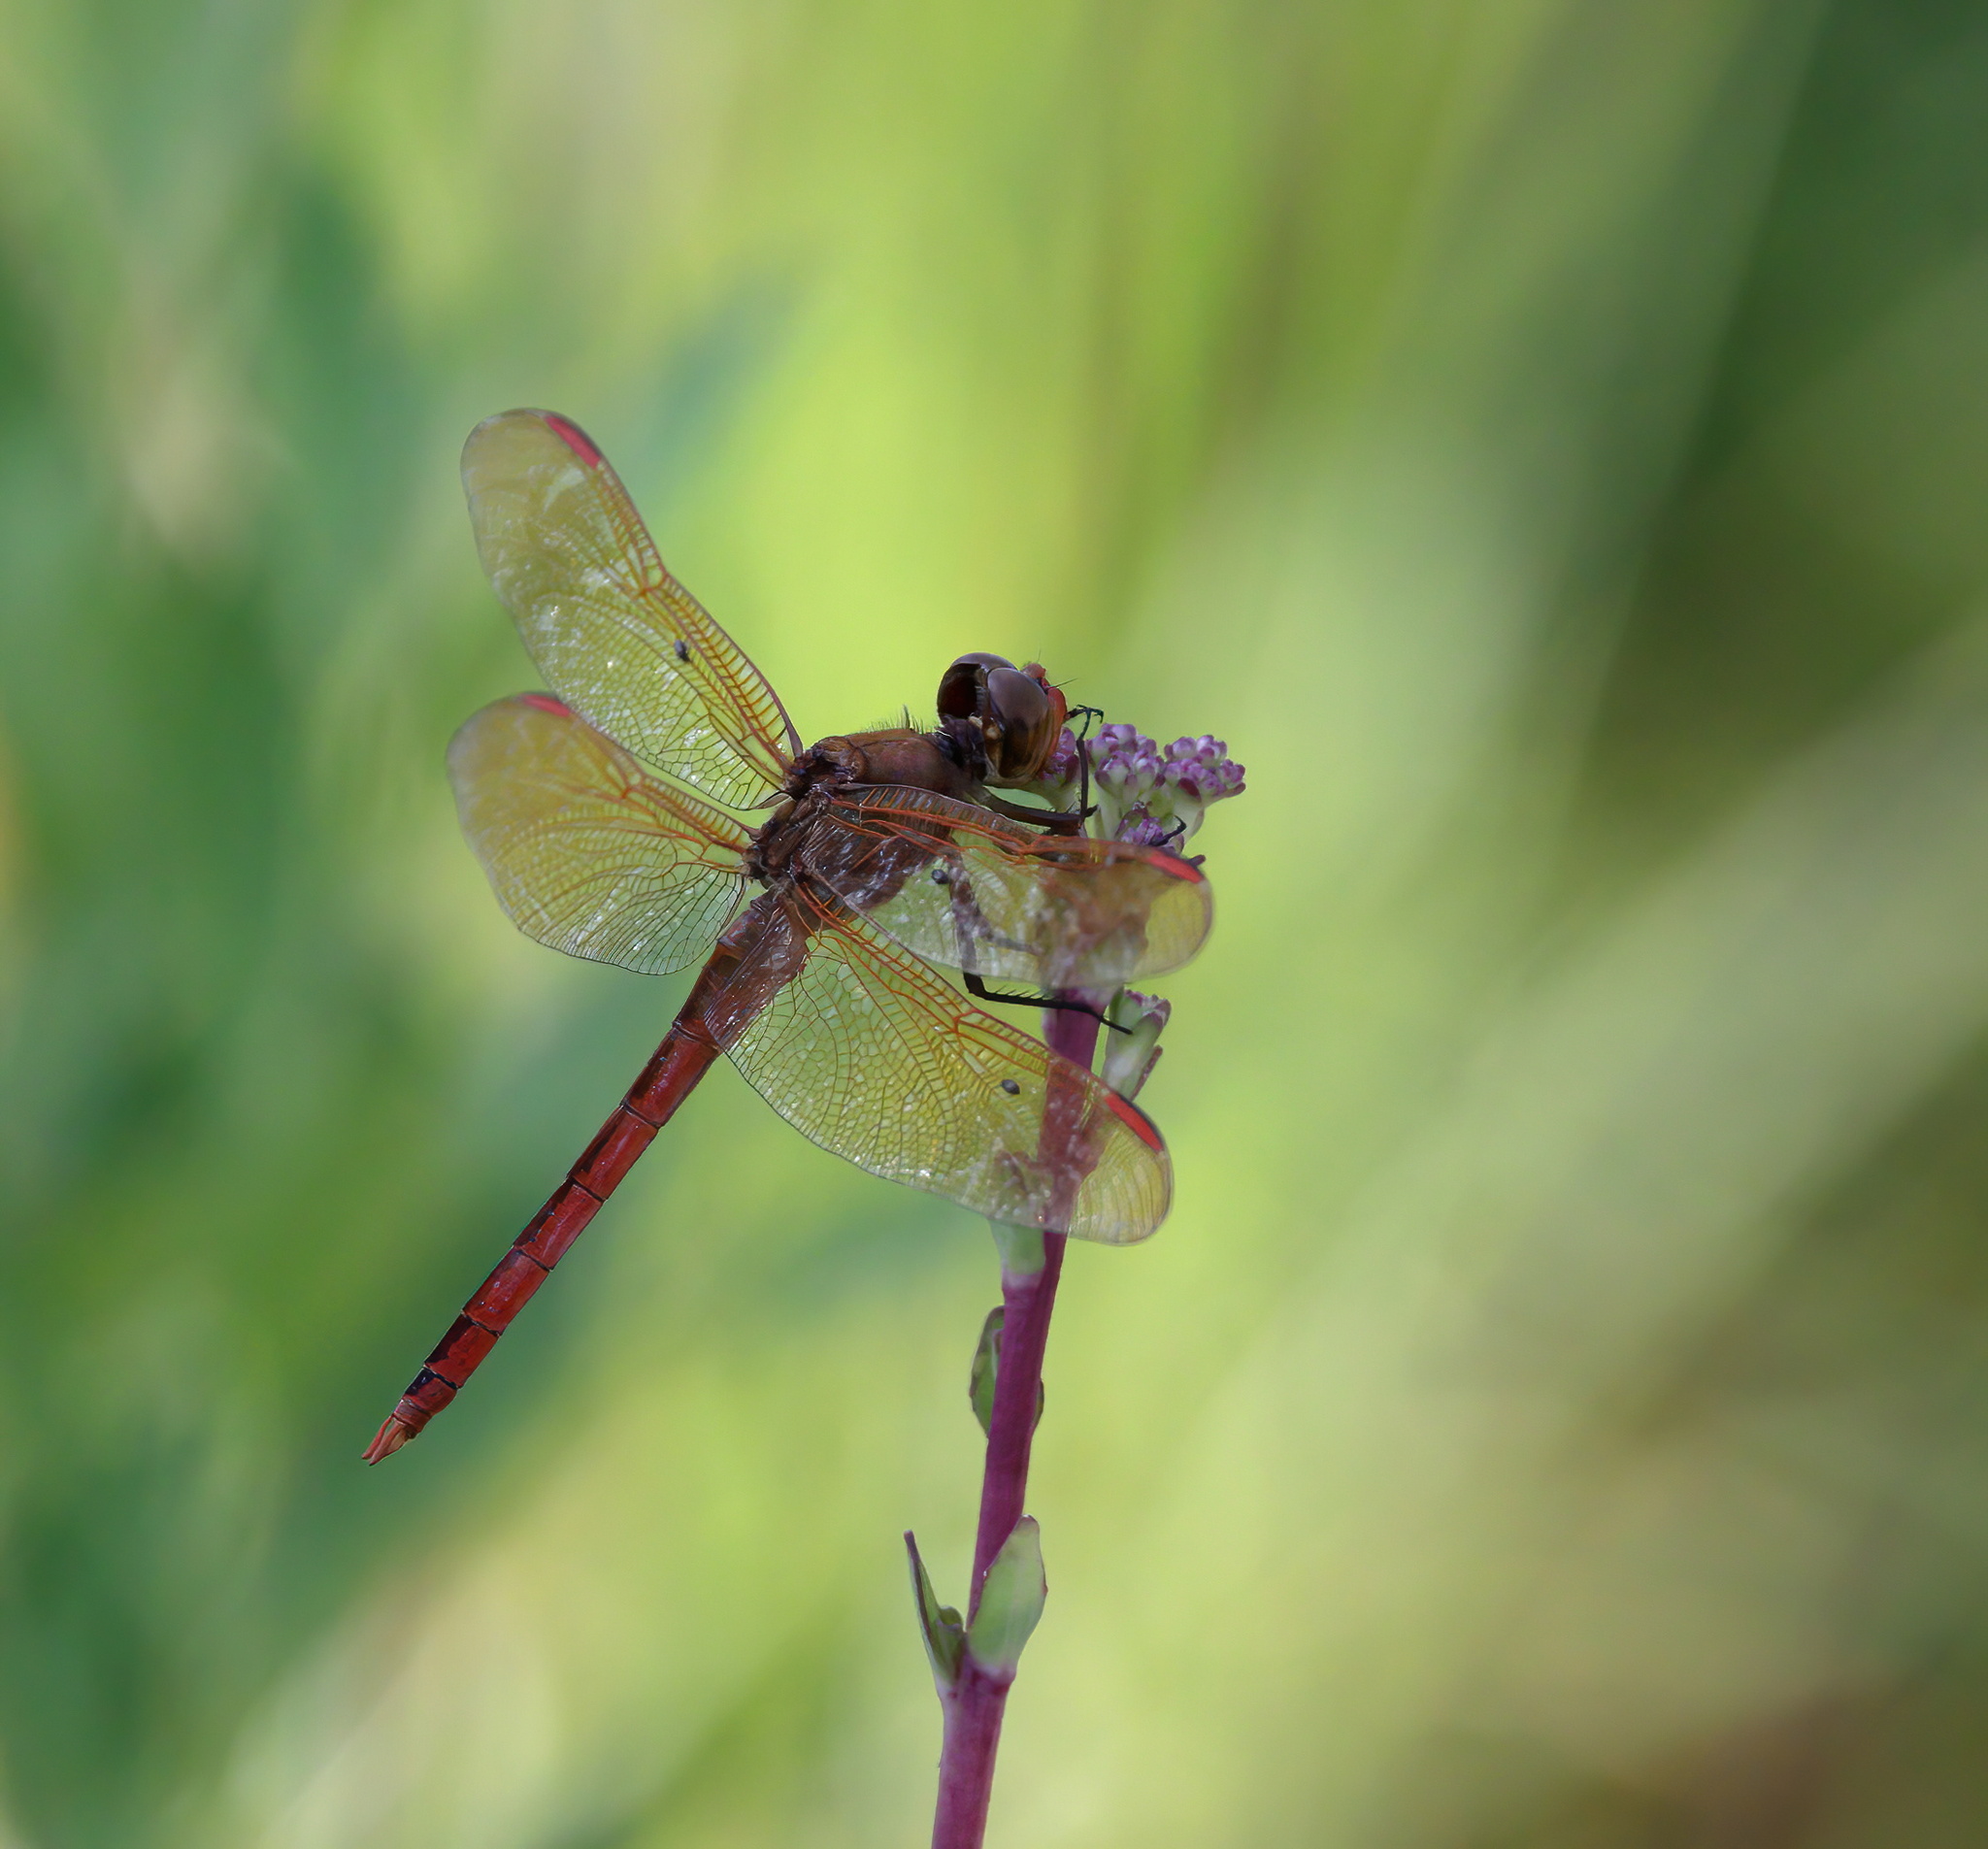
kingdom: Animalia
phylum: Arthropoda
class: Insecta
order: Odonata
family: Libellulidae
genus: Libellula
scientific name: Libellula auripennis
